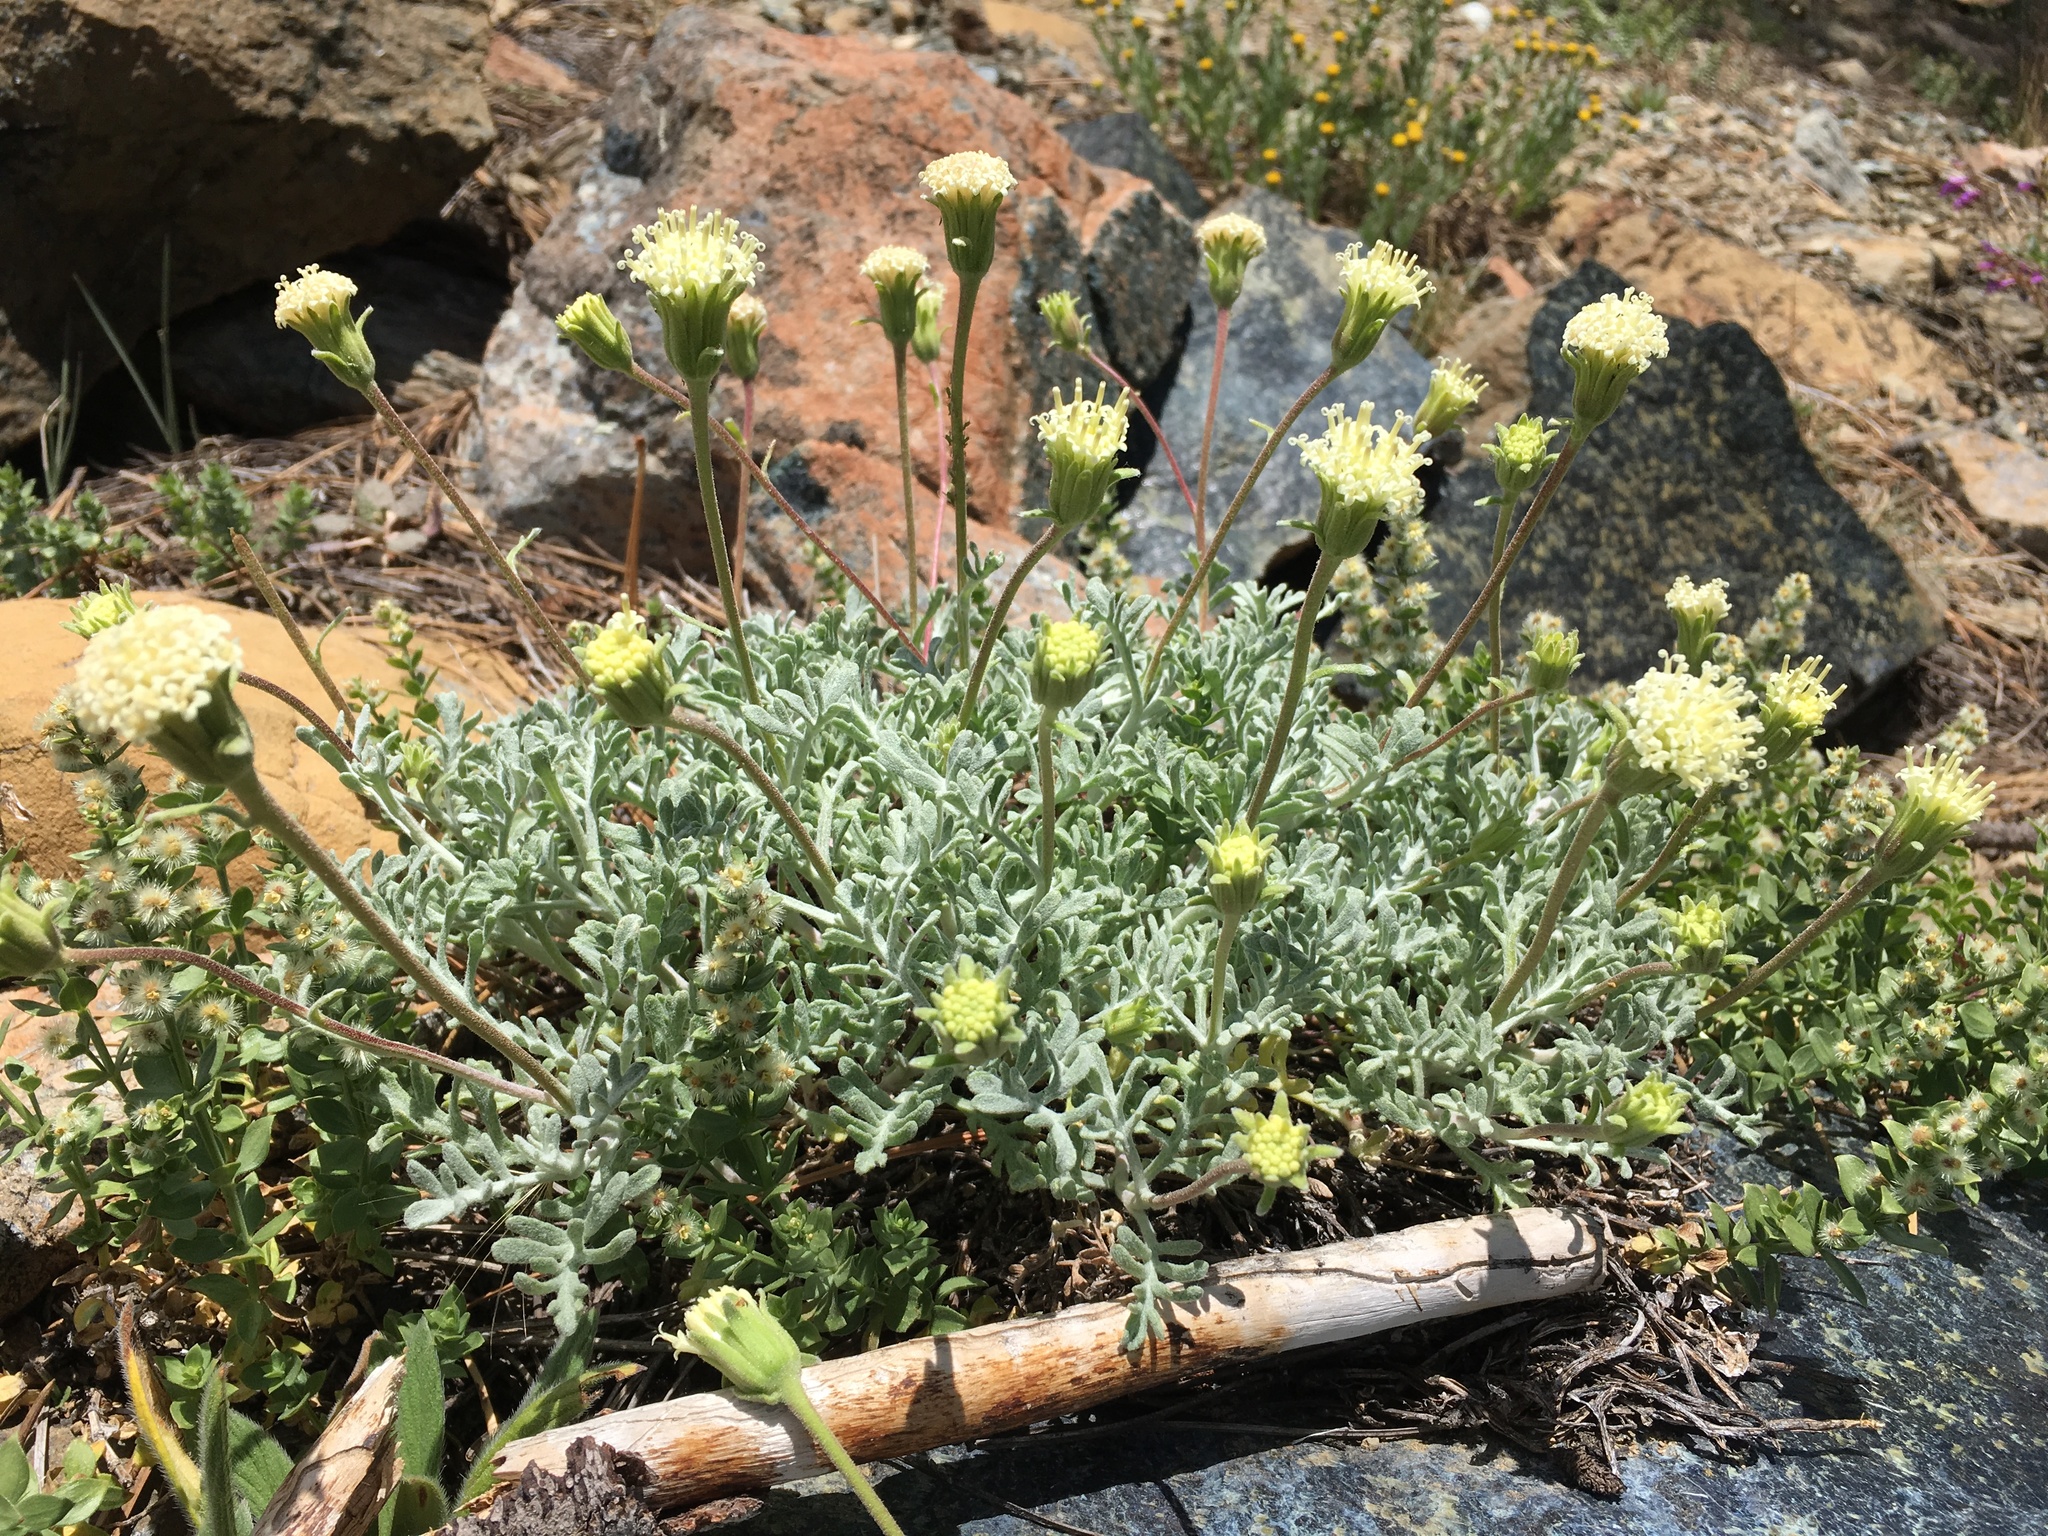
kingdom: Plantae
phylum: Tracheophyta
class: Magnoliopsida
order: Asterales
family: Asteraceae
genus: Chaenactis
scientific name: Chaenactis suffrutescens
